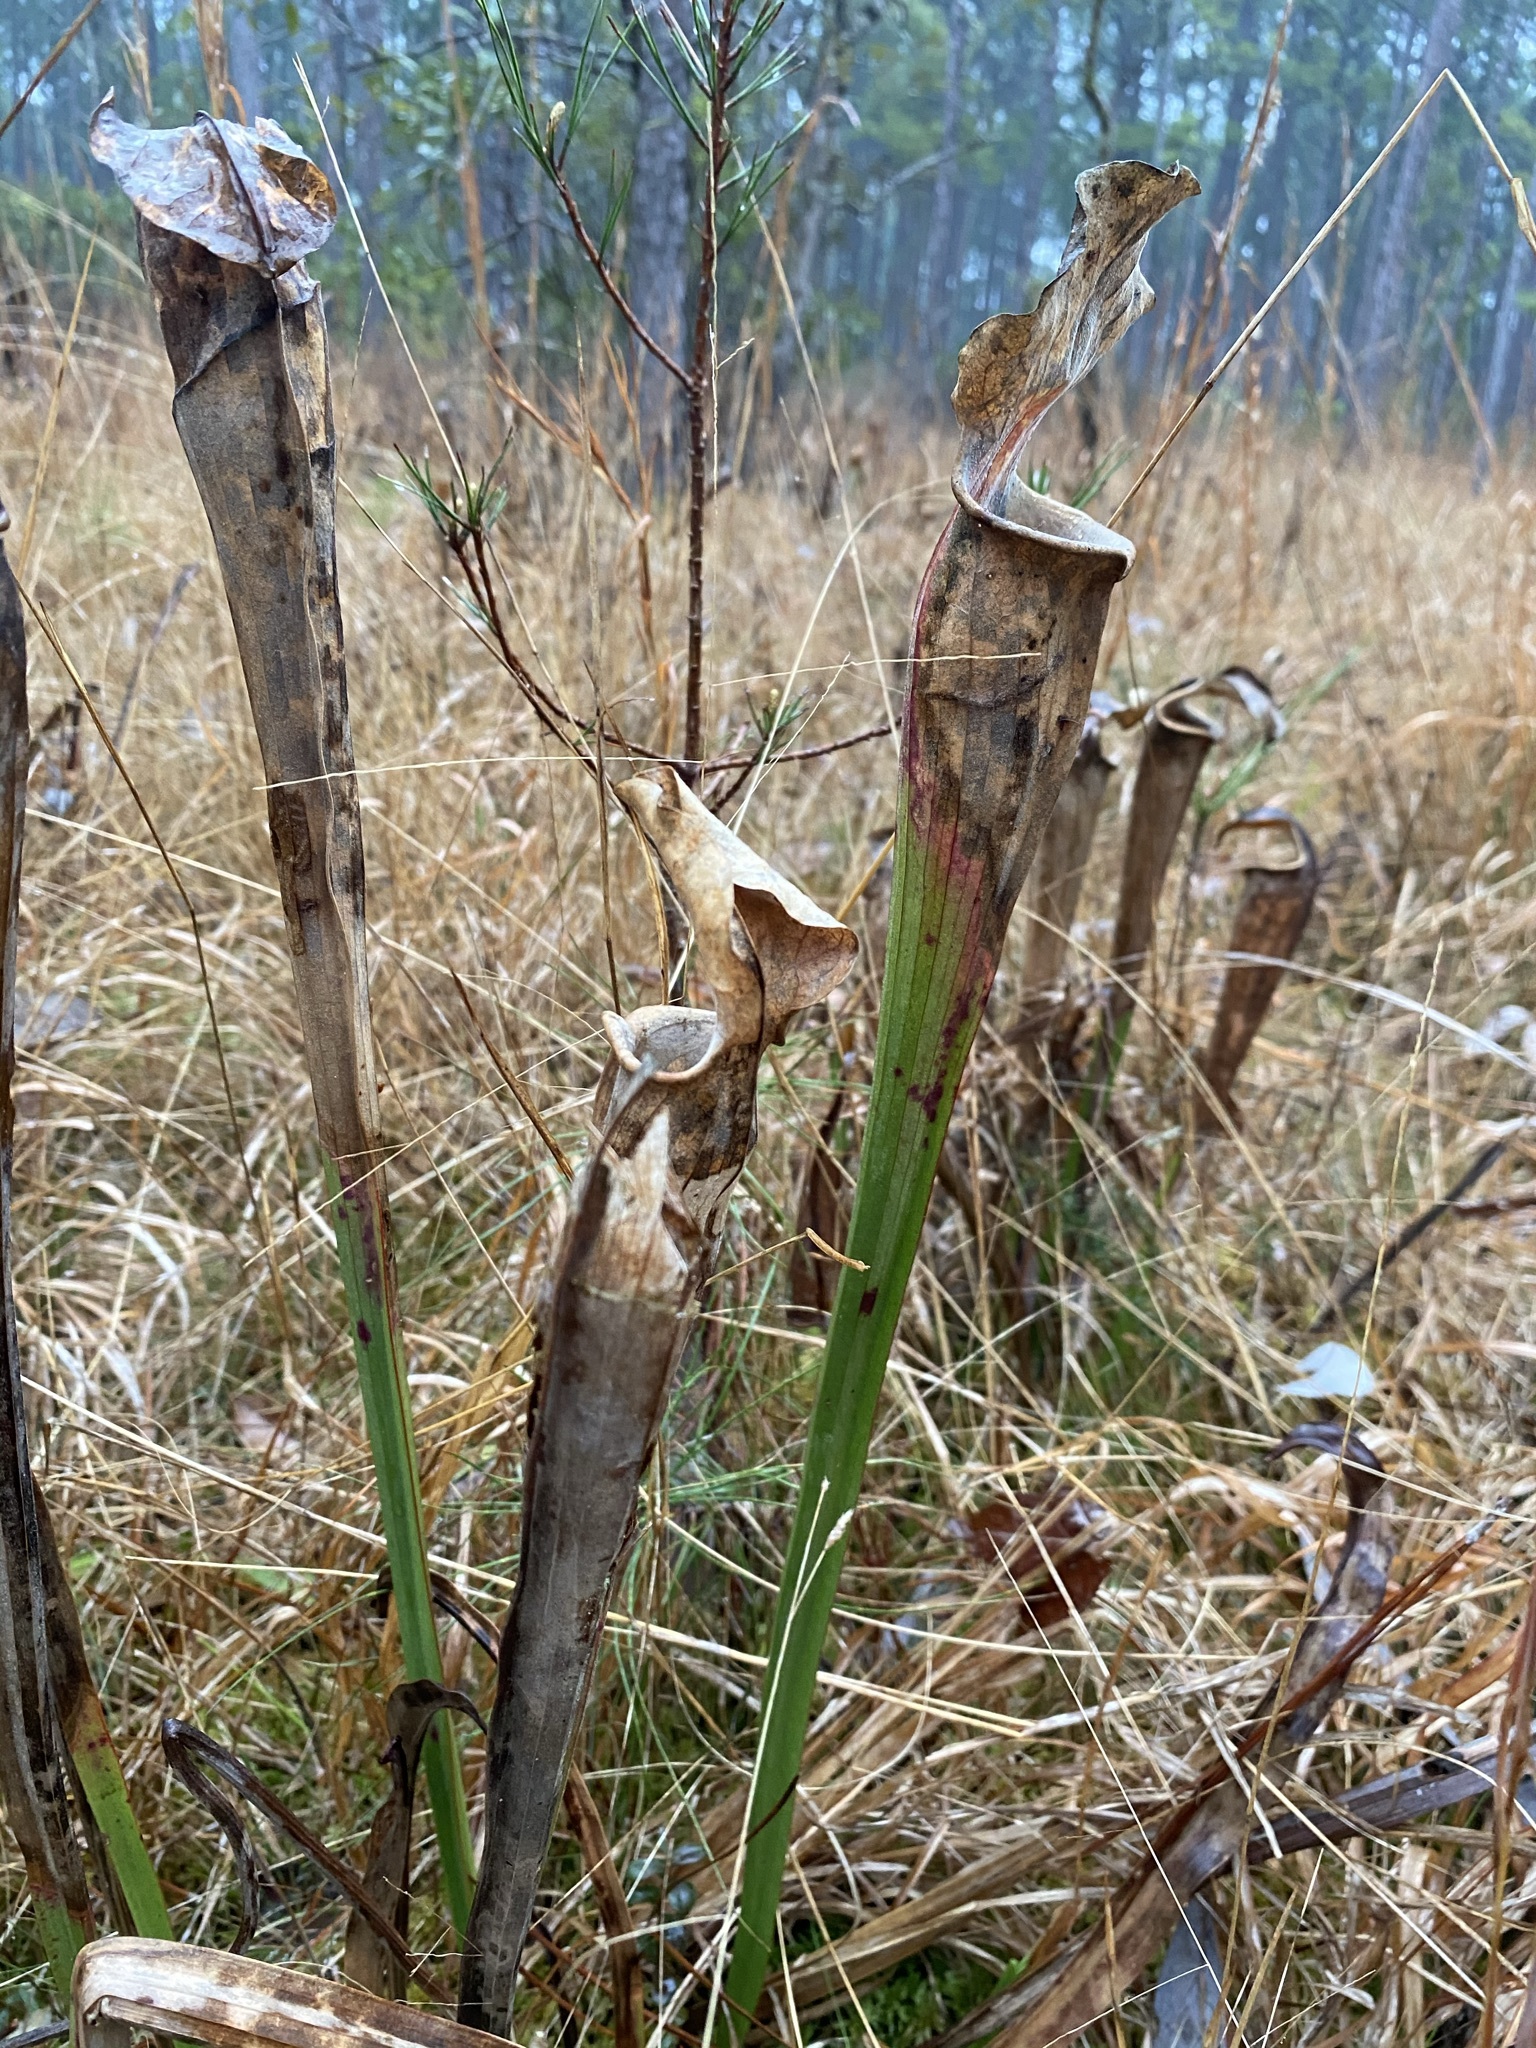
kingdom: Plantae
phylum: Tracheophyta
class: Magnoliopsida
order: Ericales
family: Sarraceniaceae
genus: Sarracenia
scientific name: Sarracenia alata
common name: Yellow trumpets
